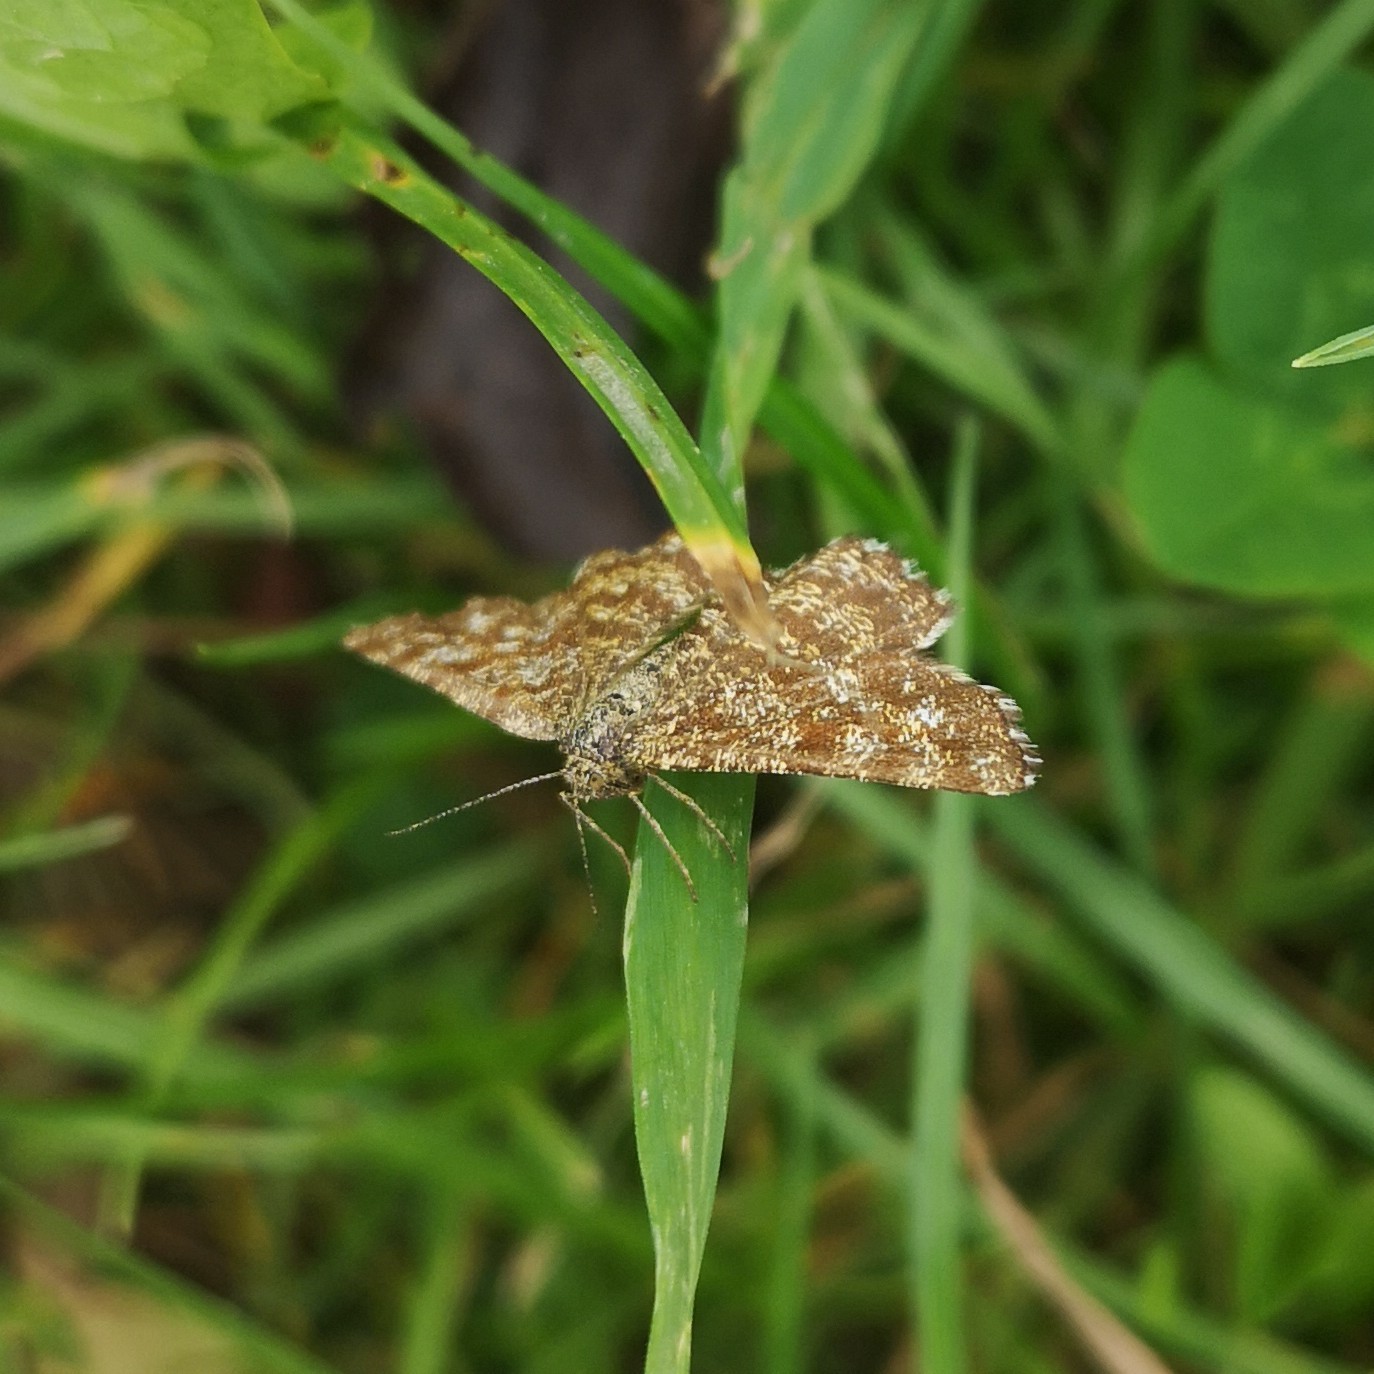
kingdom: Animalia
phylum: Arthropoda
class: Insecta
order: Lepidoptera
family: Geometridae
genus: Ematurga
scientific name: Ematurga atomaria
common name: Common heath
